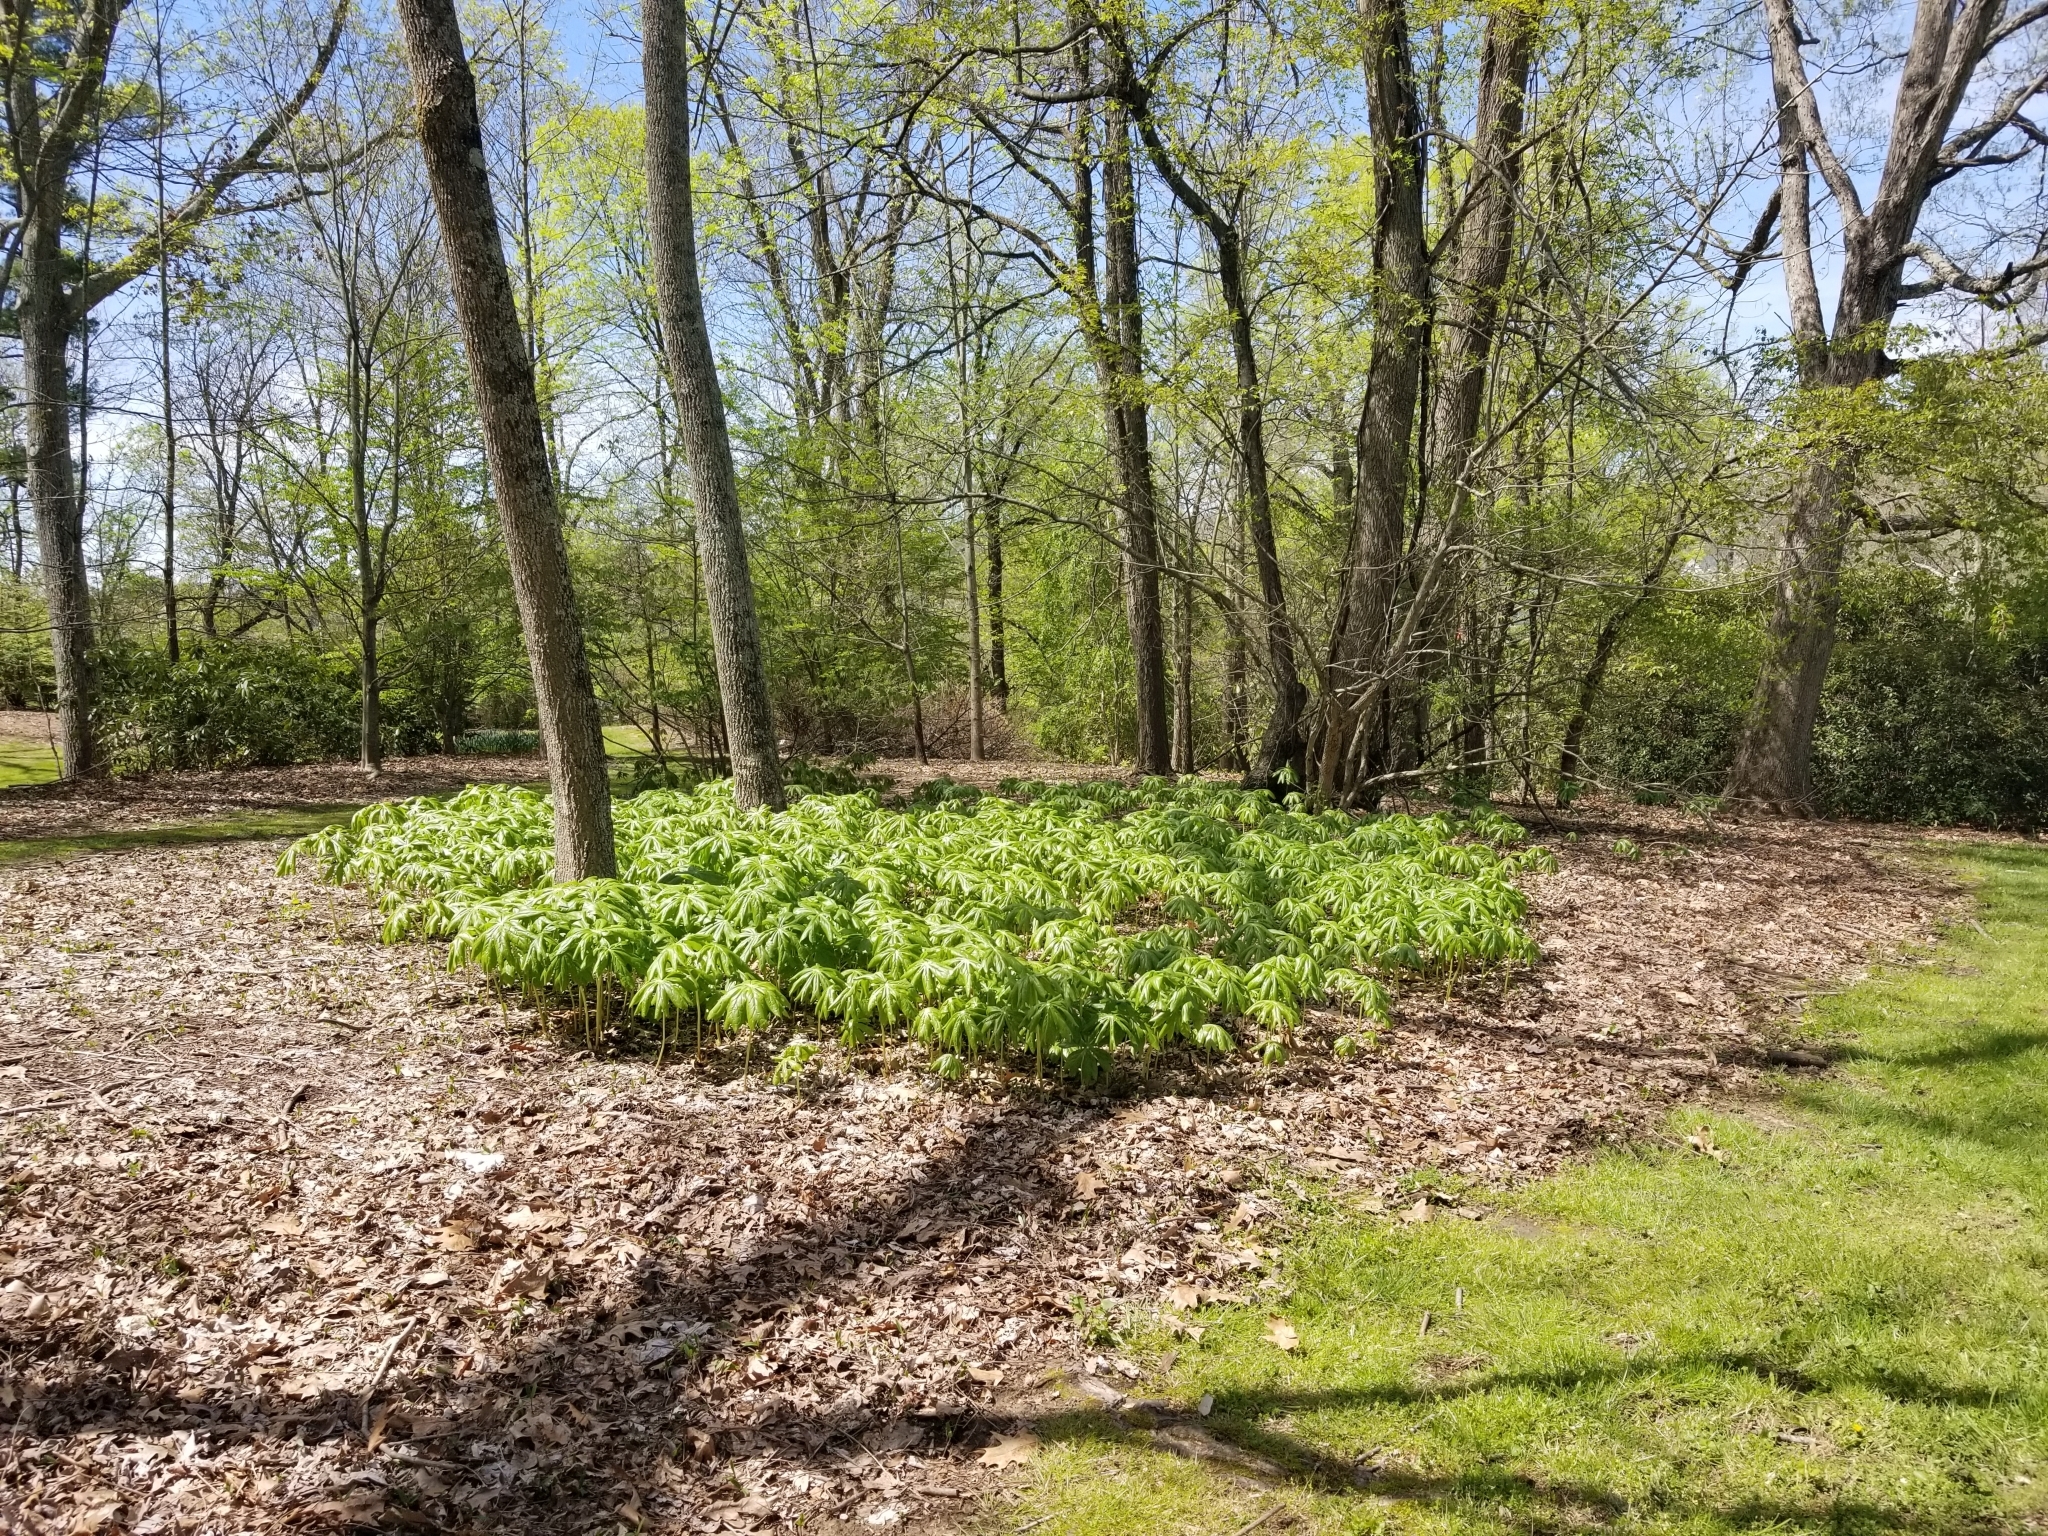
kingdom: Plantae
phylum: Tracheophyta
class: Magnoliopsida
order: Ranunculales
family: Berberidaceae
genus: Podophyllum
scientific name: Podophyllum peltatum
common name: Wild mandrake
